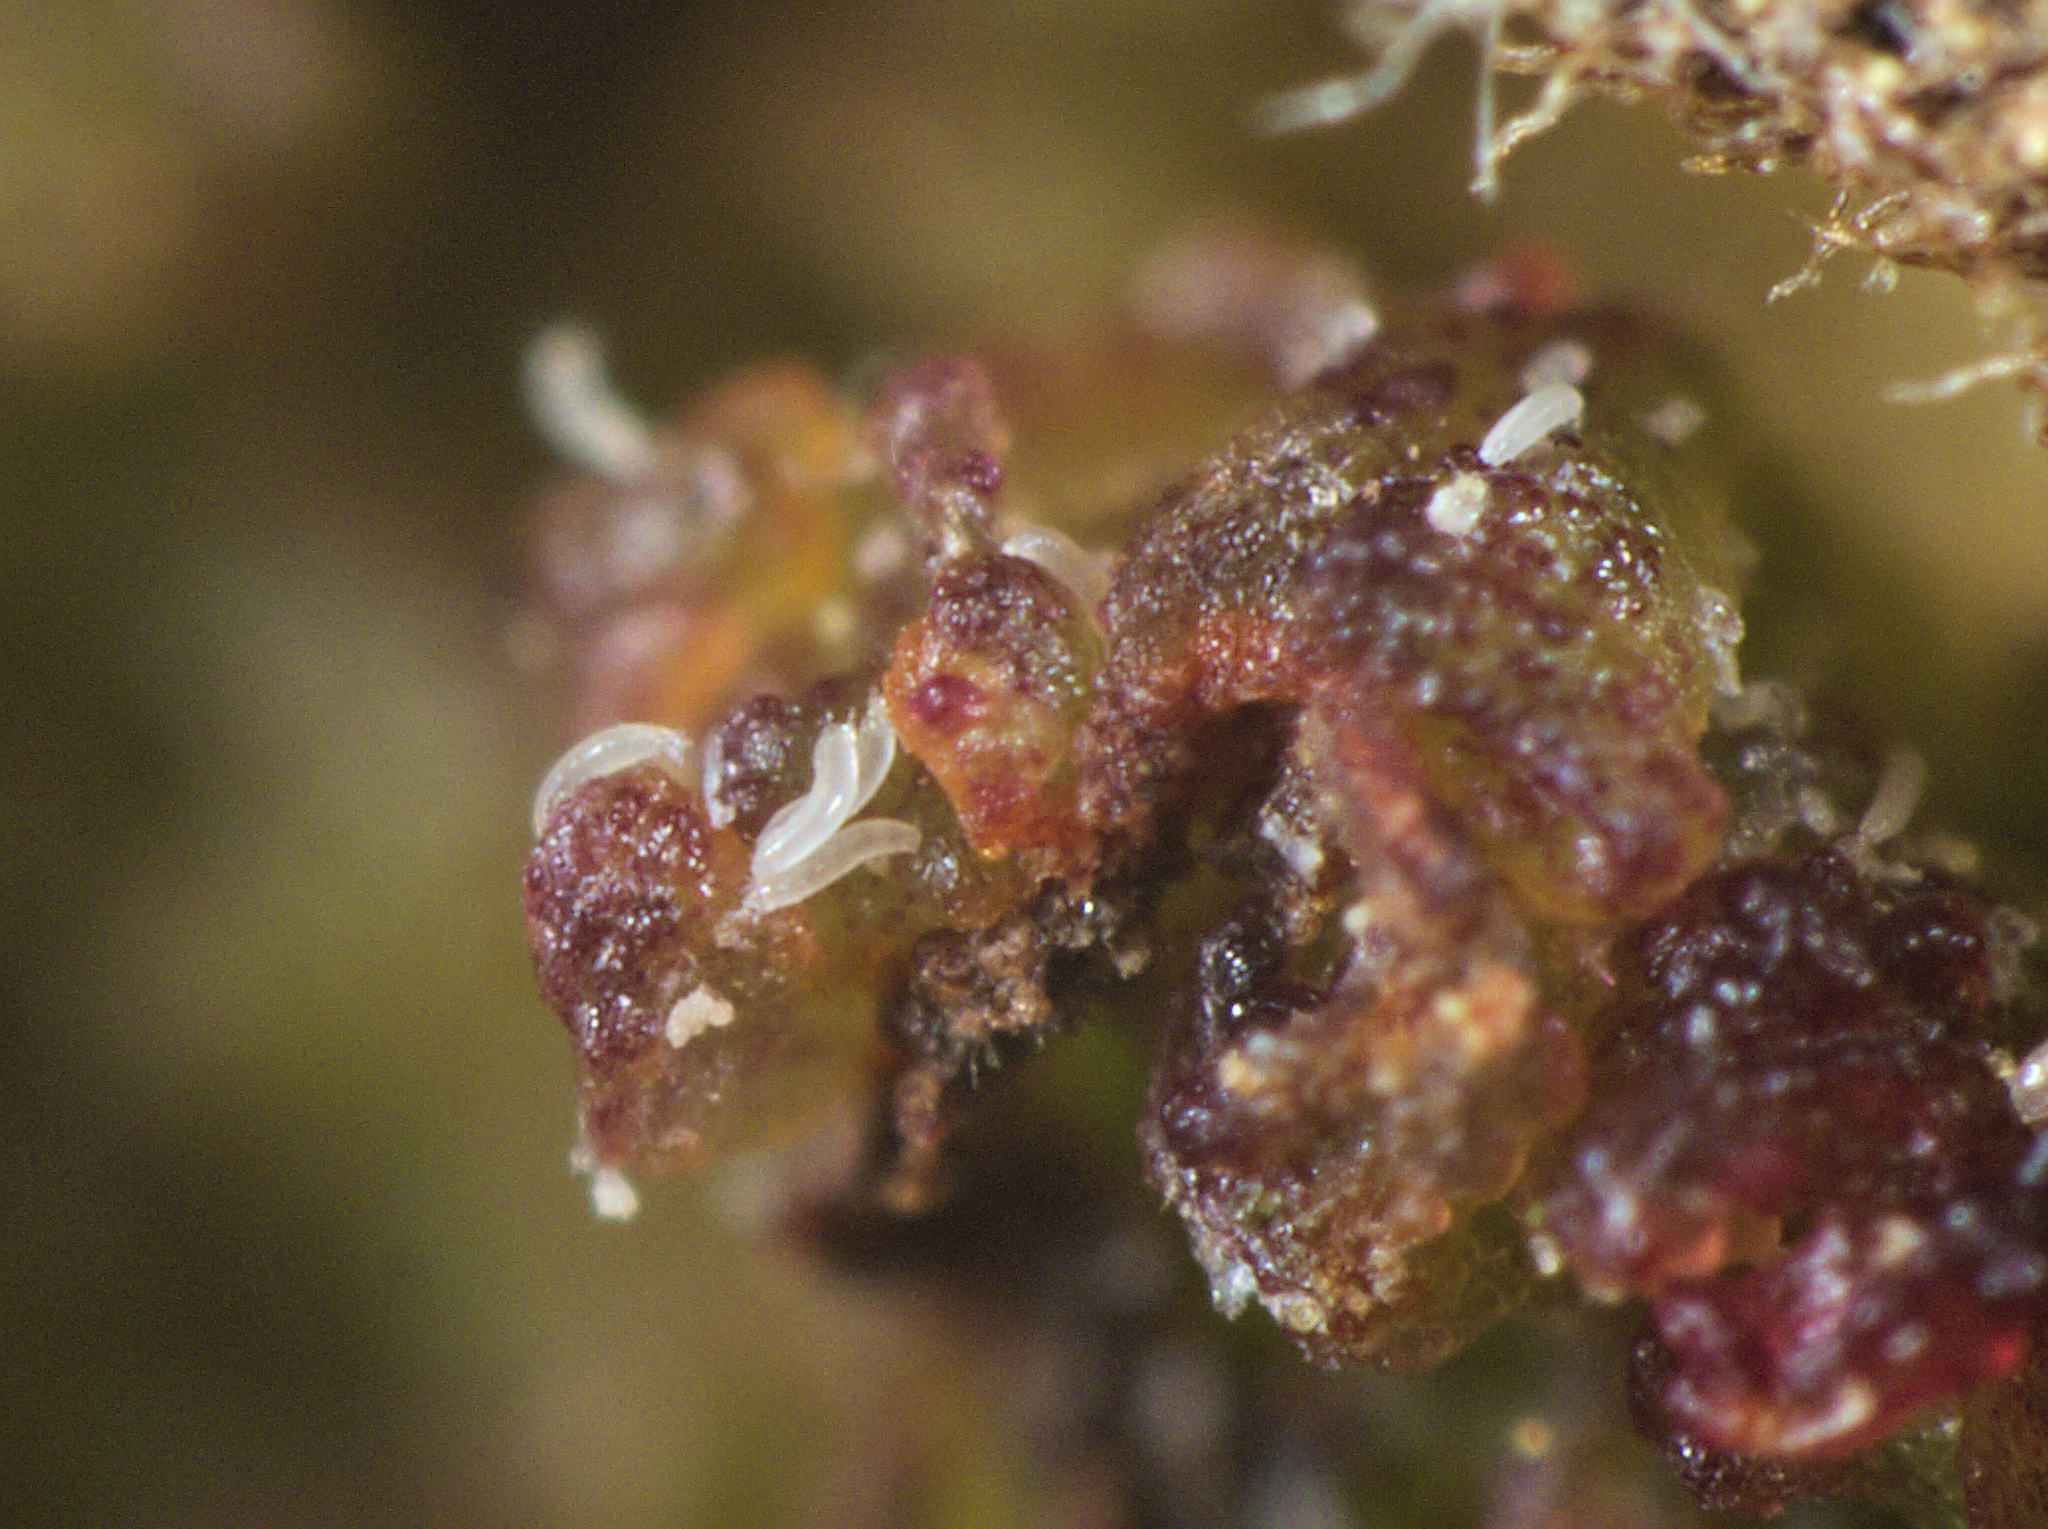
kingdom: Animalia
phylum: Arthropoda
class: Arachnida
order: Trombidiformes
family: Phytoptidae
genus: Phytoptus
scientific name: Phytoptus avellanae
